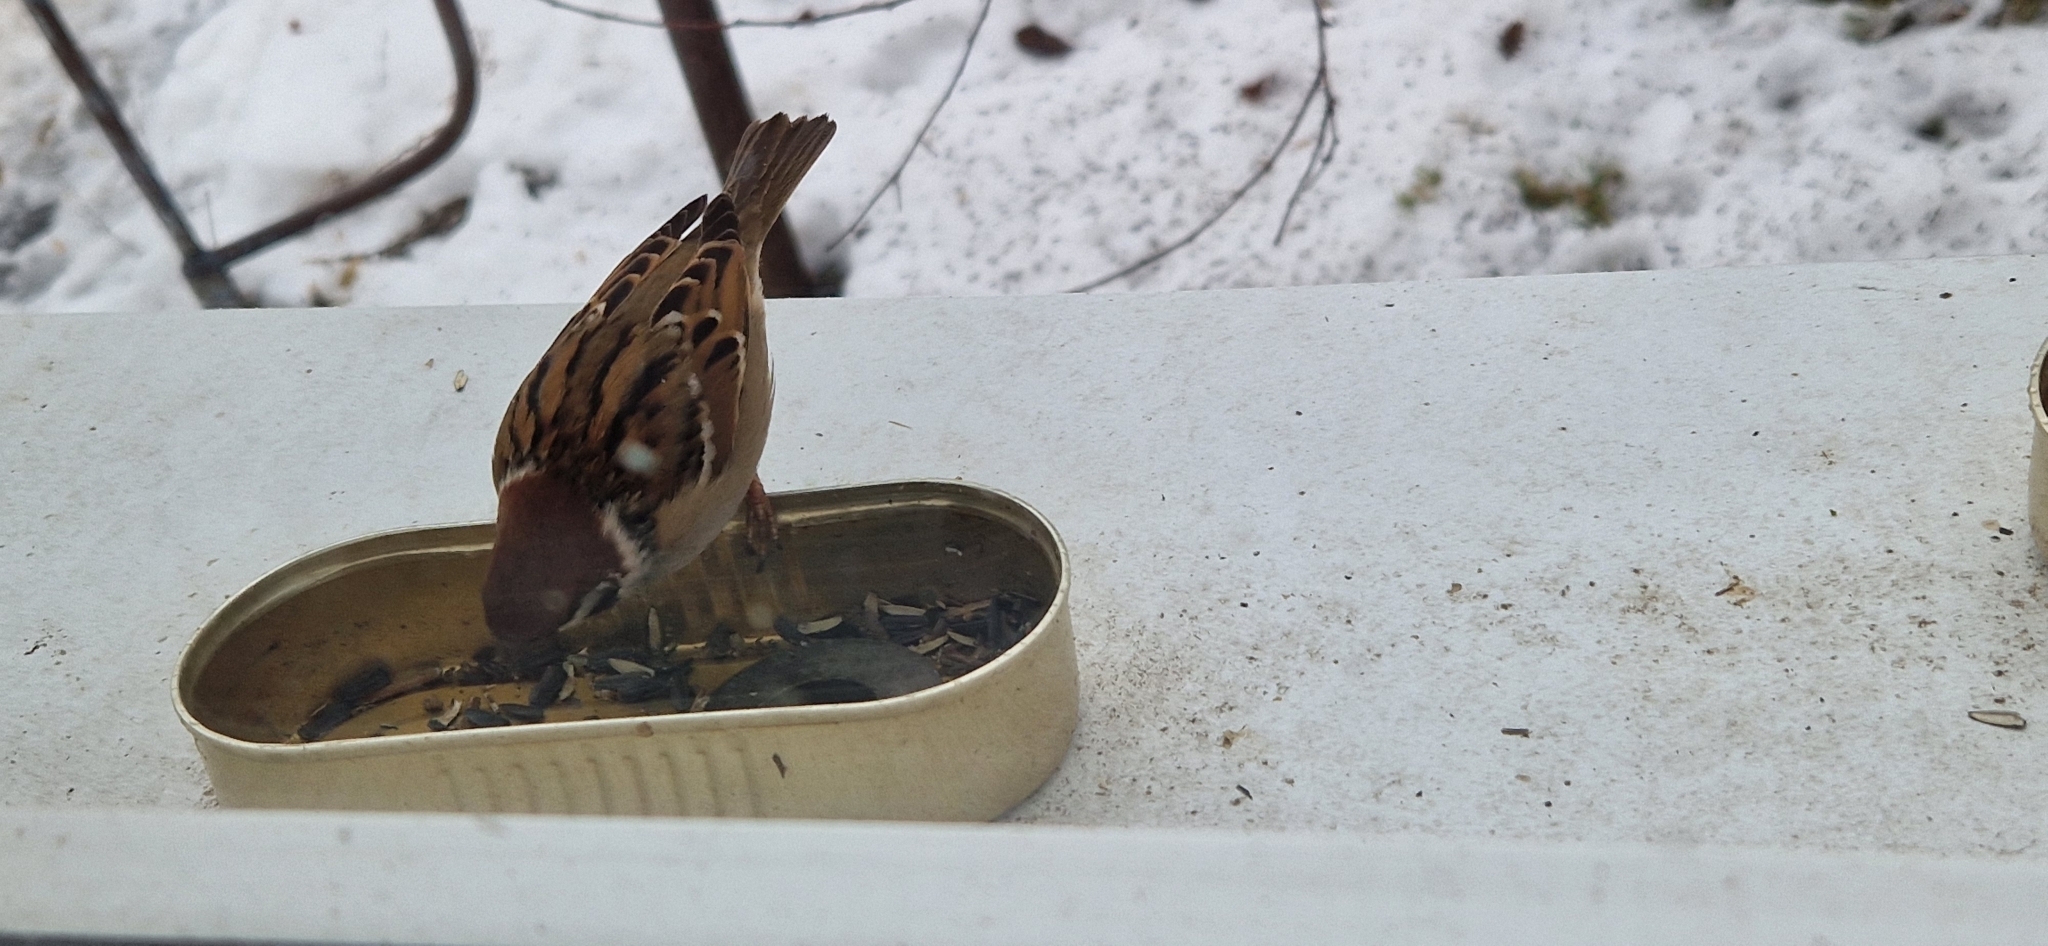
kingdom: Animalia
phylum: Chordata
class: Aves
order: Passeriformes
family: Passeridae
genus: Passer
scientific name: Passer montanus
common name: Eurasian tree sparrow
